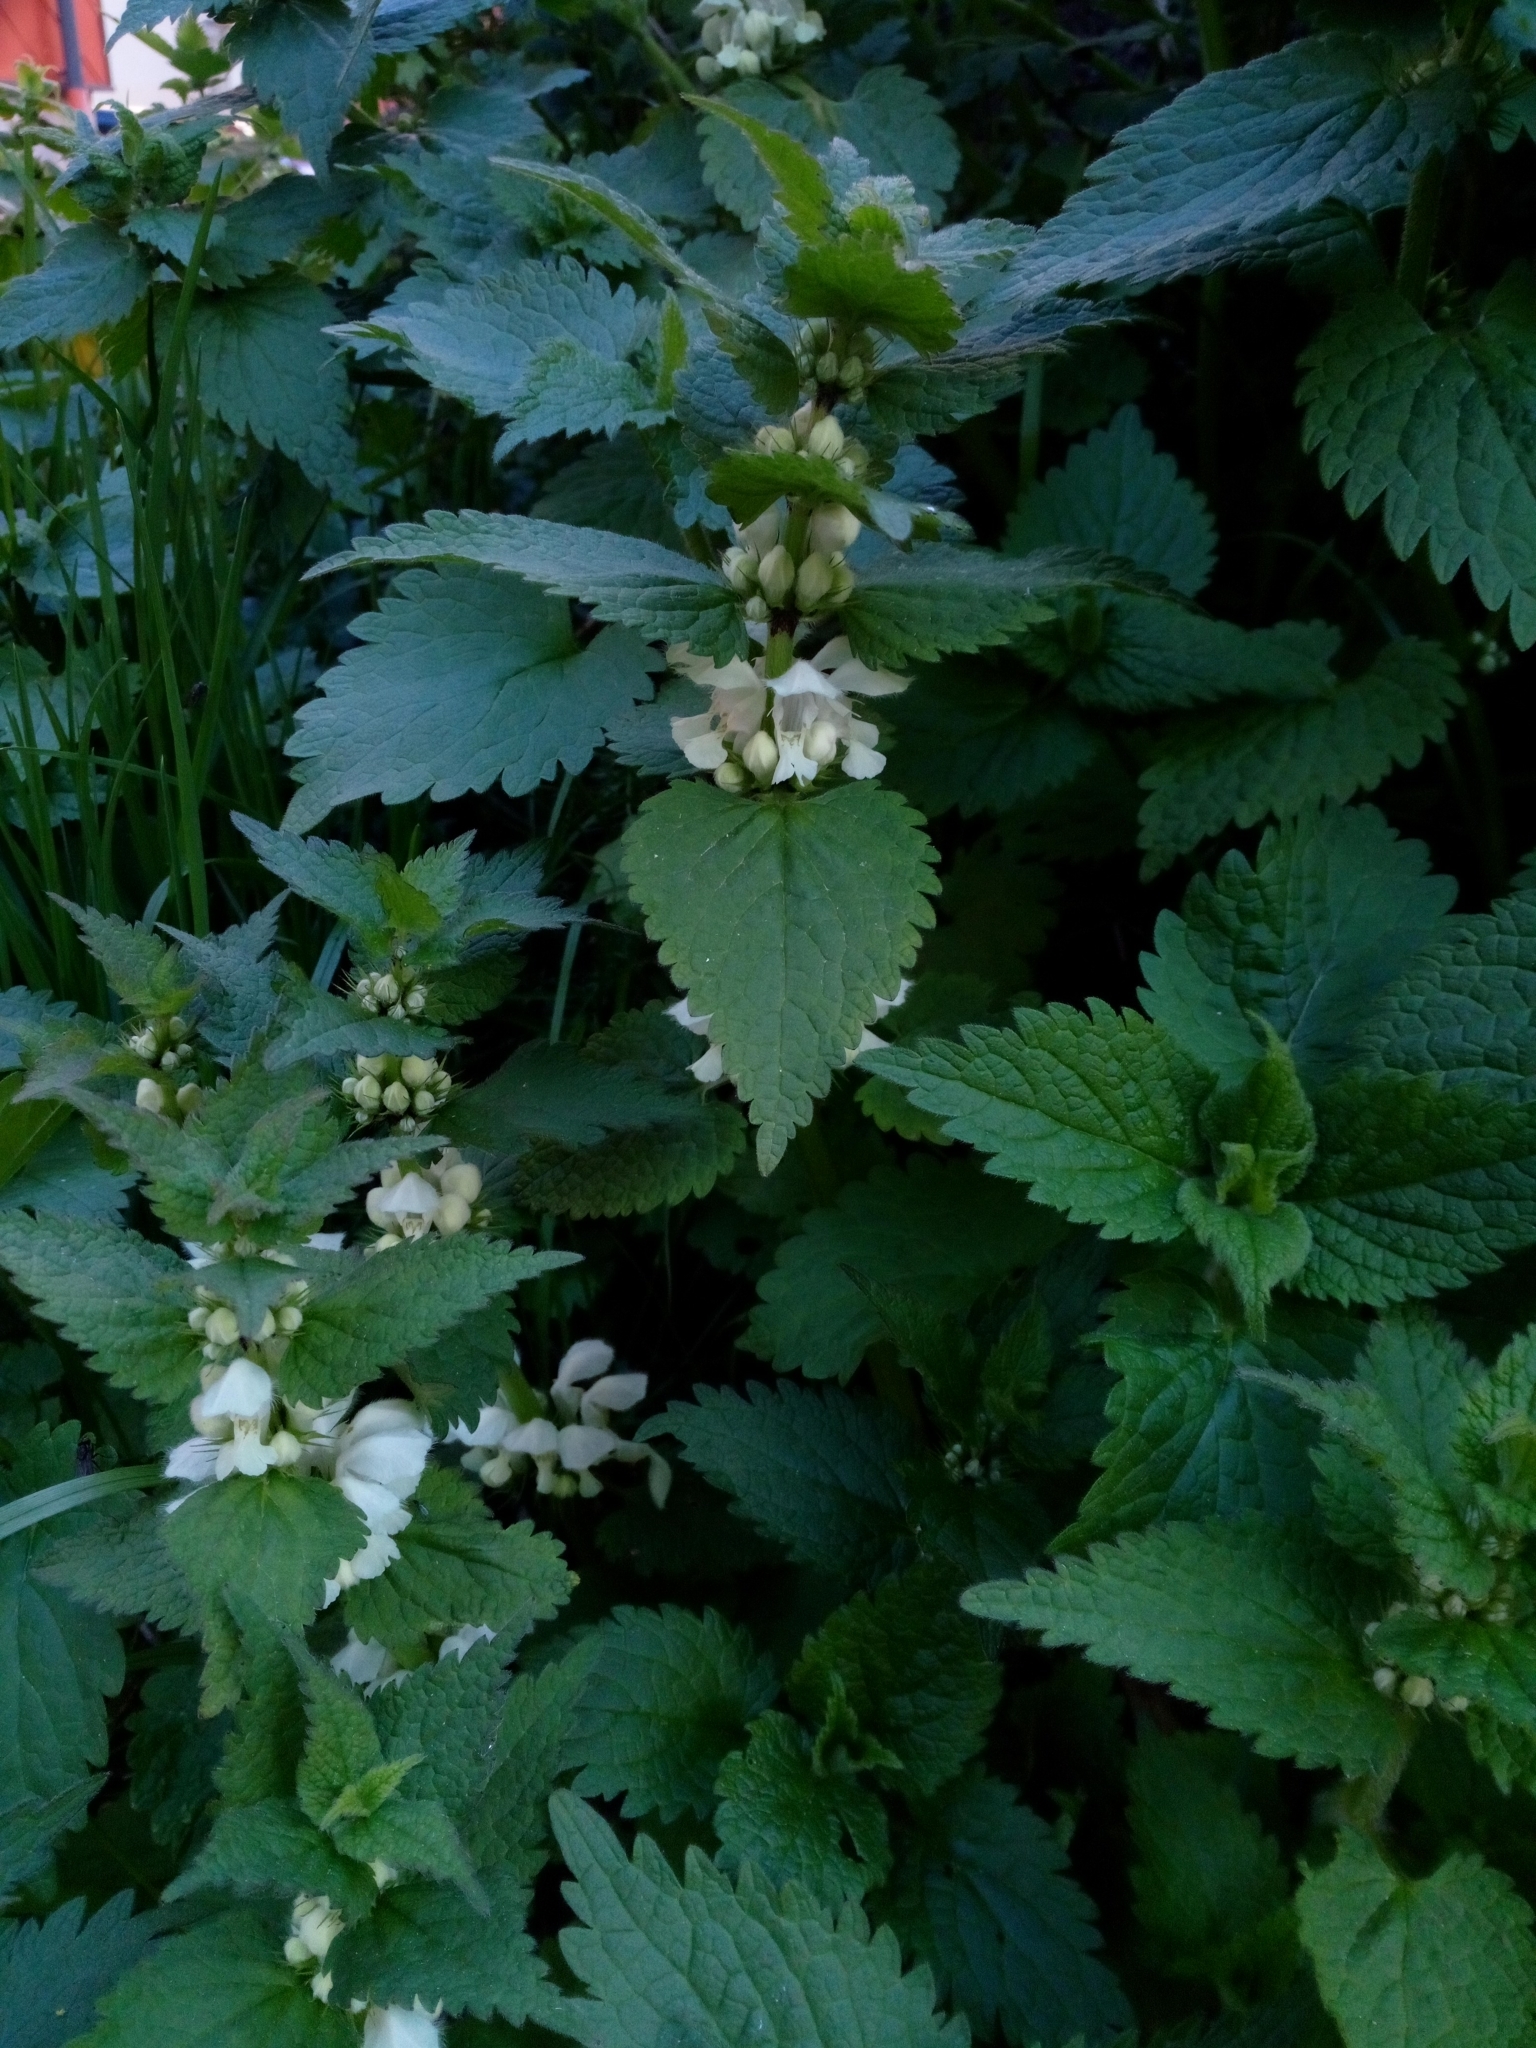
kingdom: Plantae
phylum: Tracheophyta
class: Magnoliopsida
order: Lamiales
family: Lamiaceae
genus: Lamium
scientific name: Lamium album
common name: White dead-nettle
